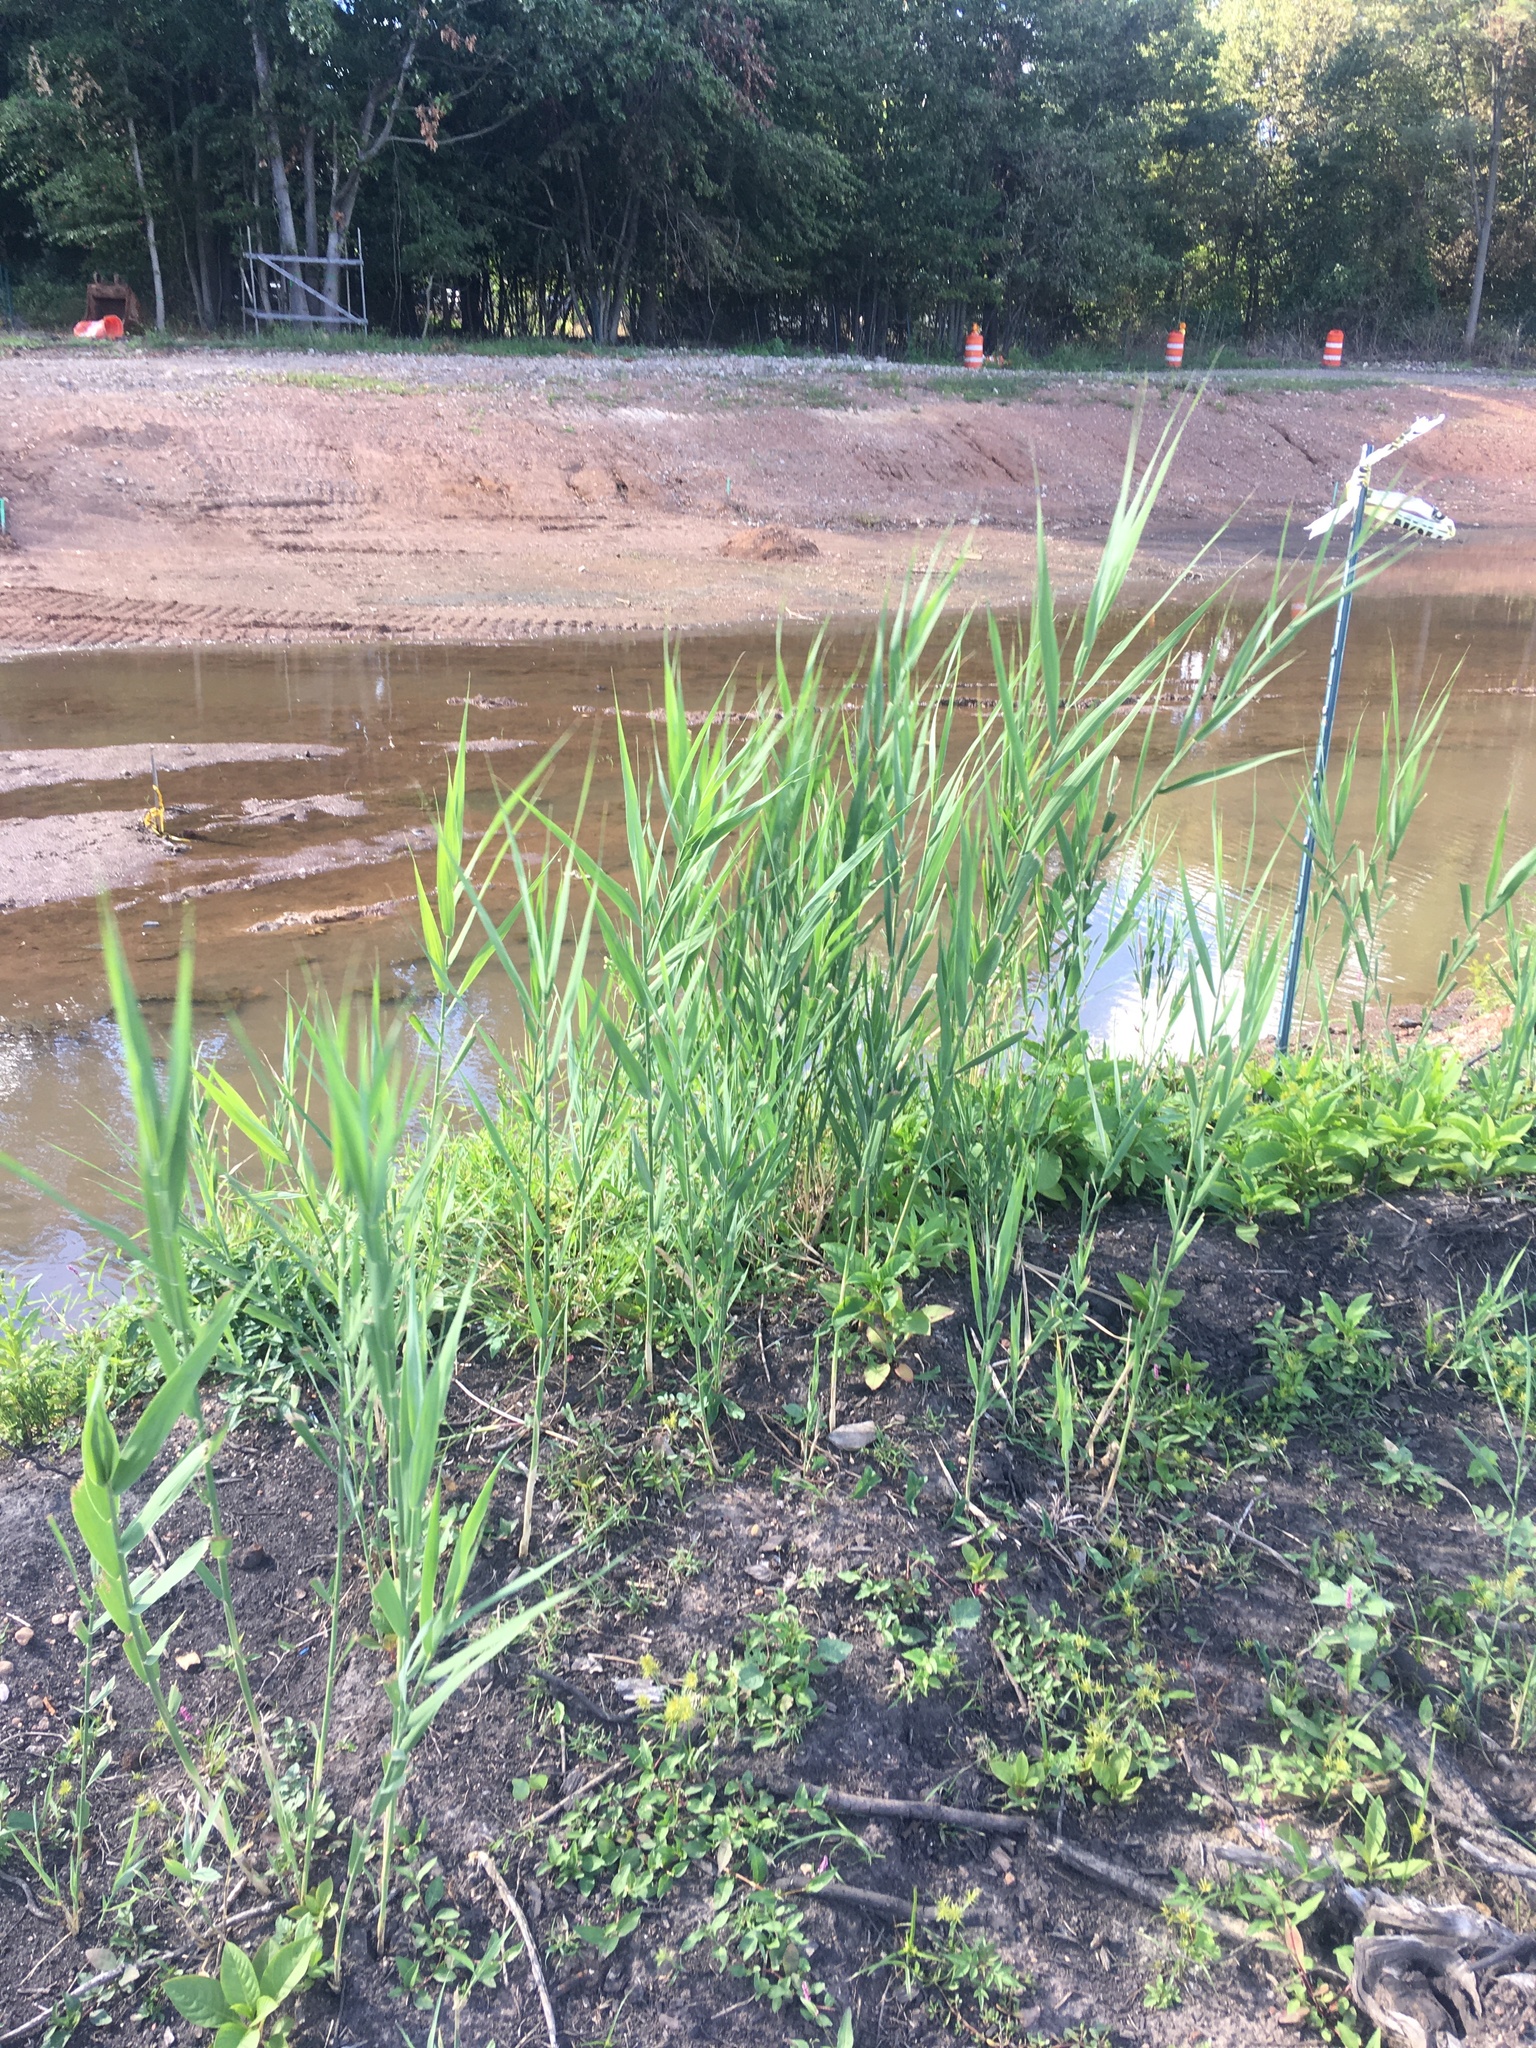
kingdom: Plantae
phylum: Tracheophyta
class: Liliopsida
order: Poales
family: Poaceae
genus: Phragmites
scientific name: Phragmites australis
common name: Common reed
